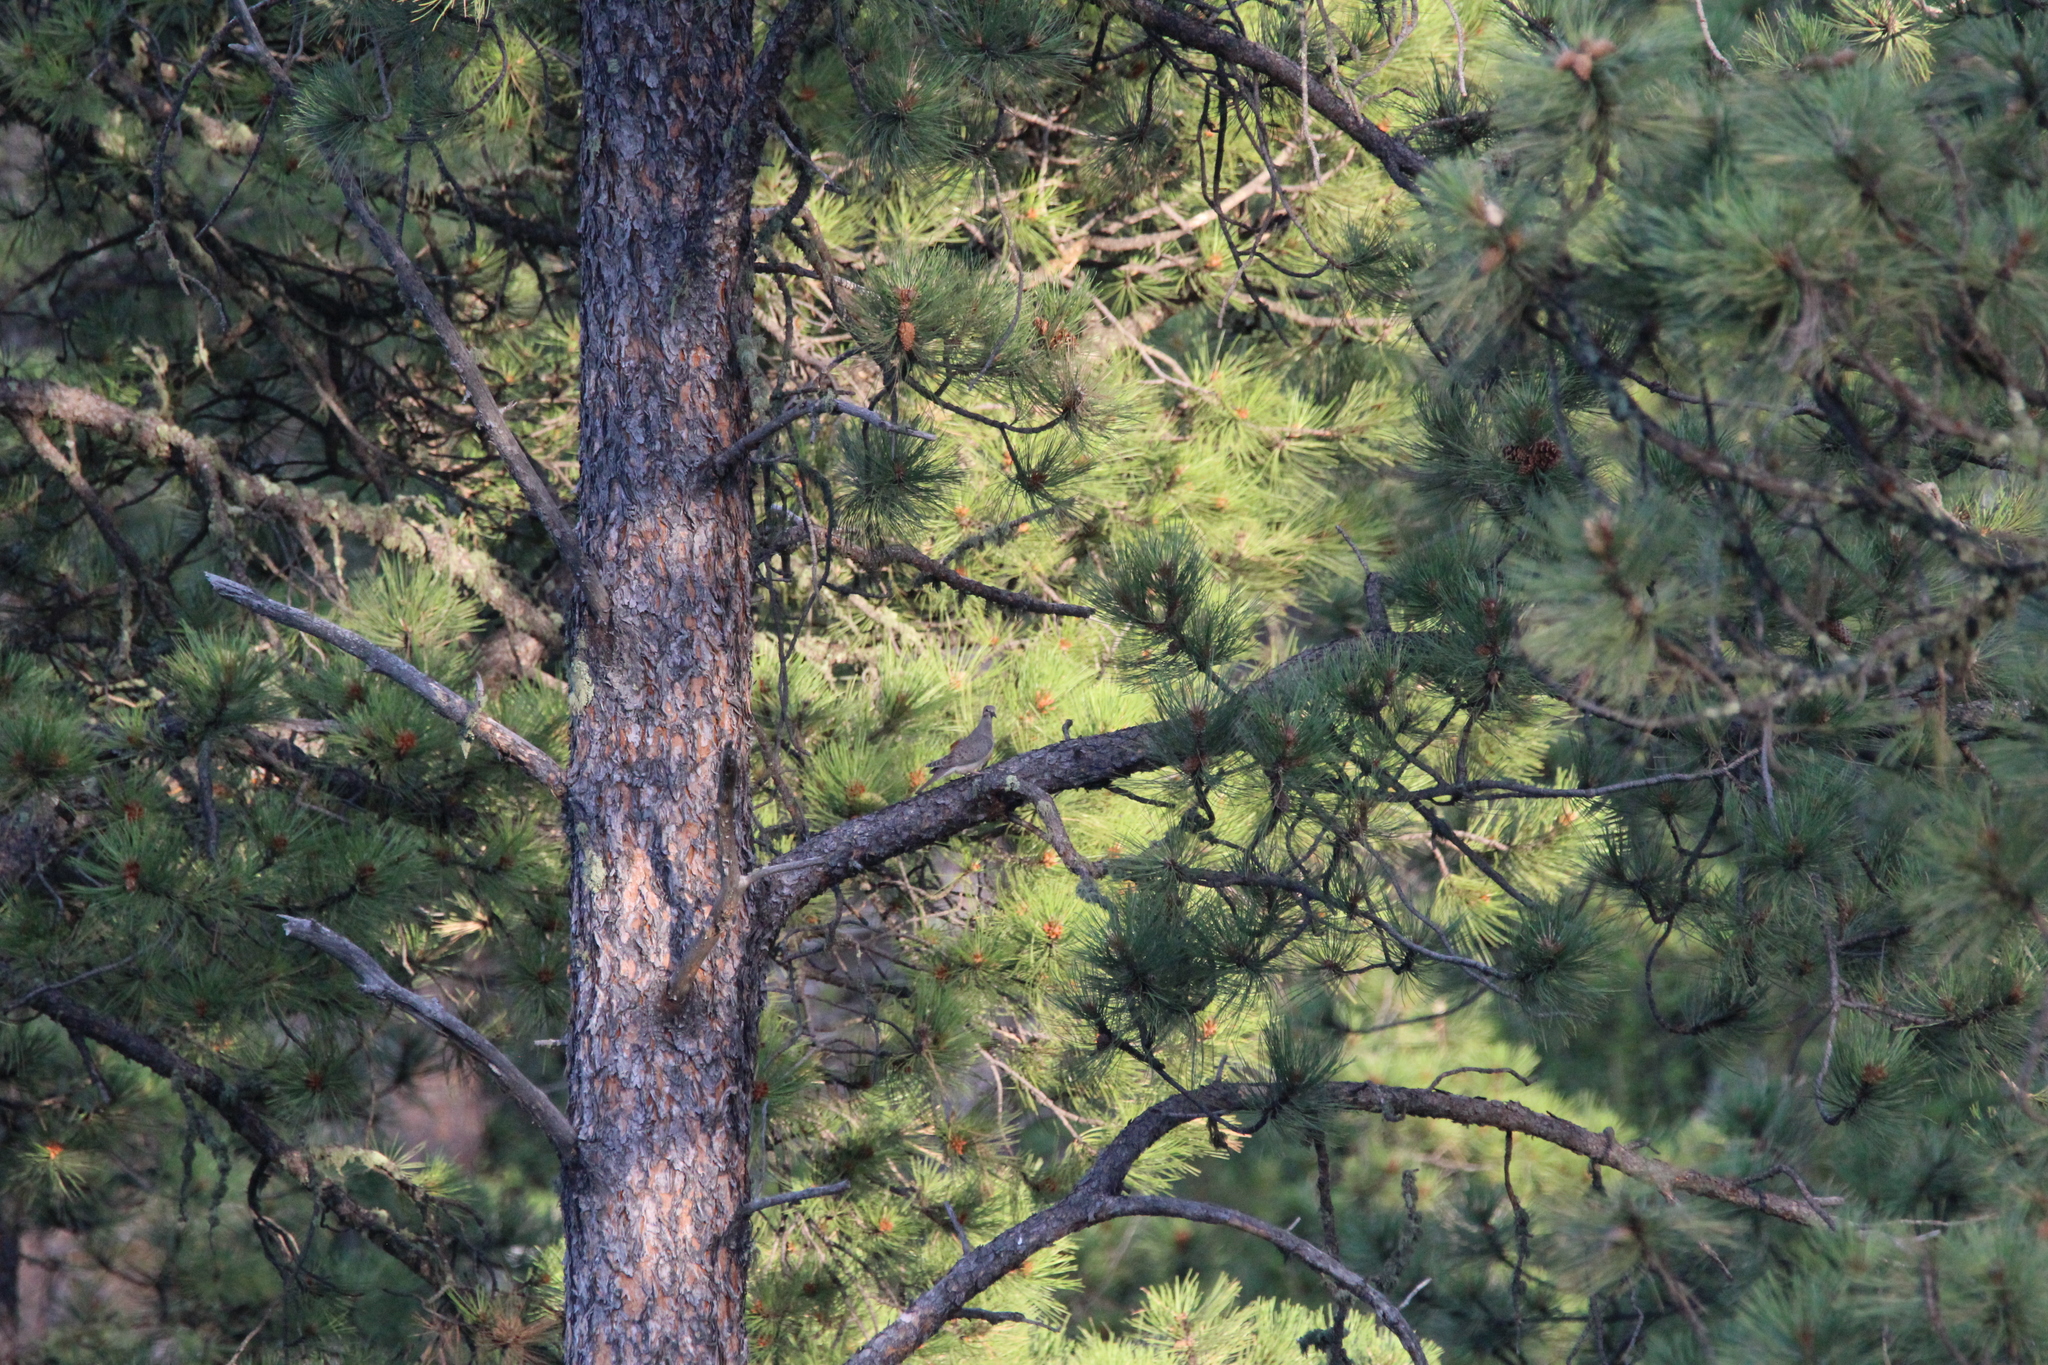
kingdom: Animalia
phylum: Chordata
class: Aves
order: Columbiformes
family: Columbidae
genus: Zenaida
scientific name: Zenaida macroura
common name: Mourning dove
